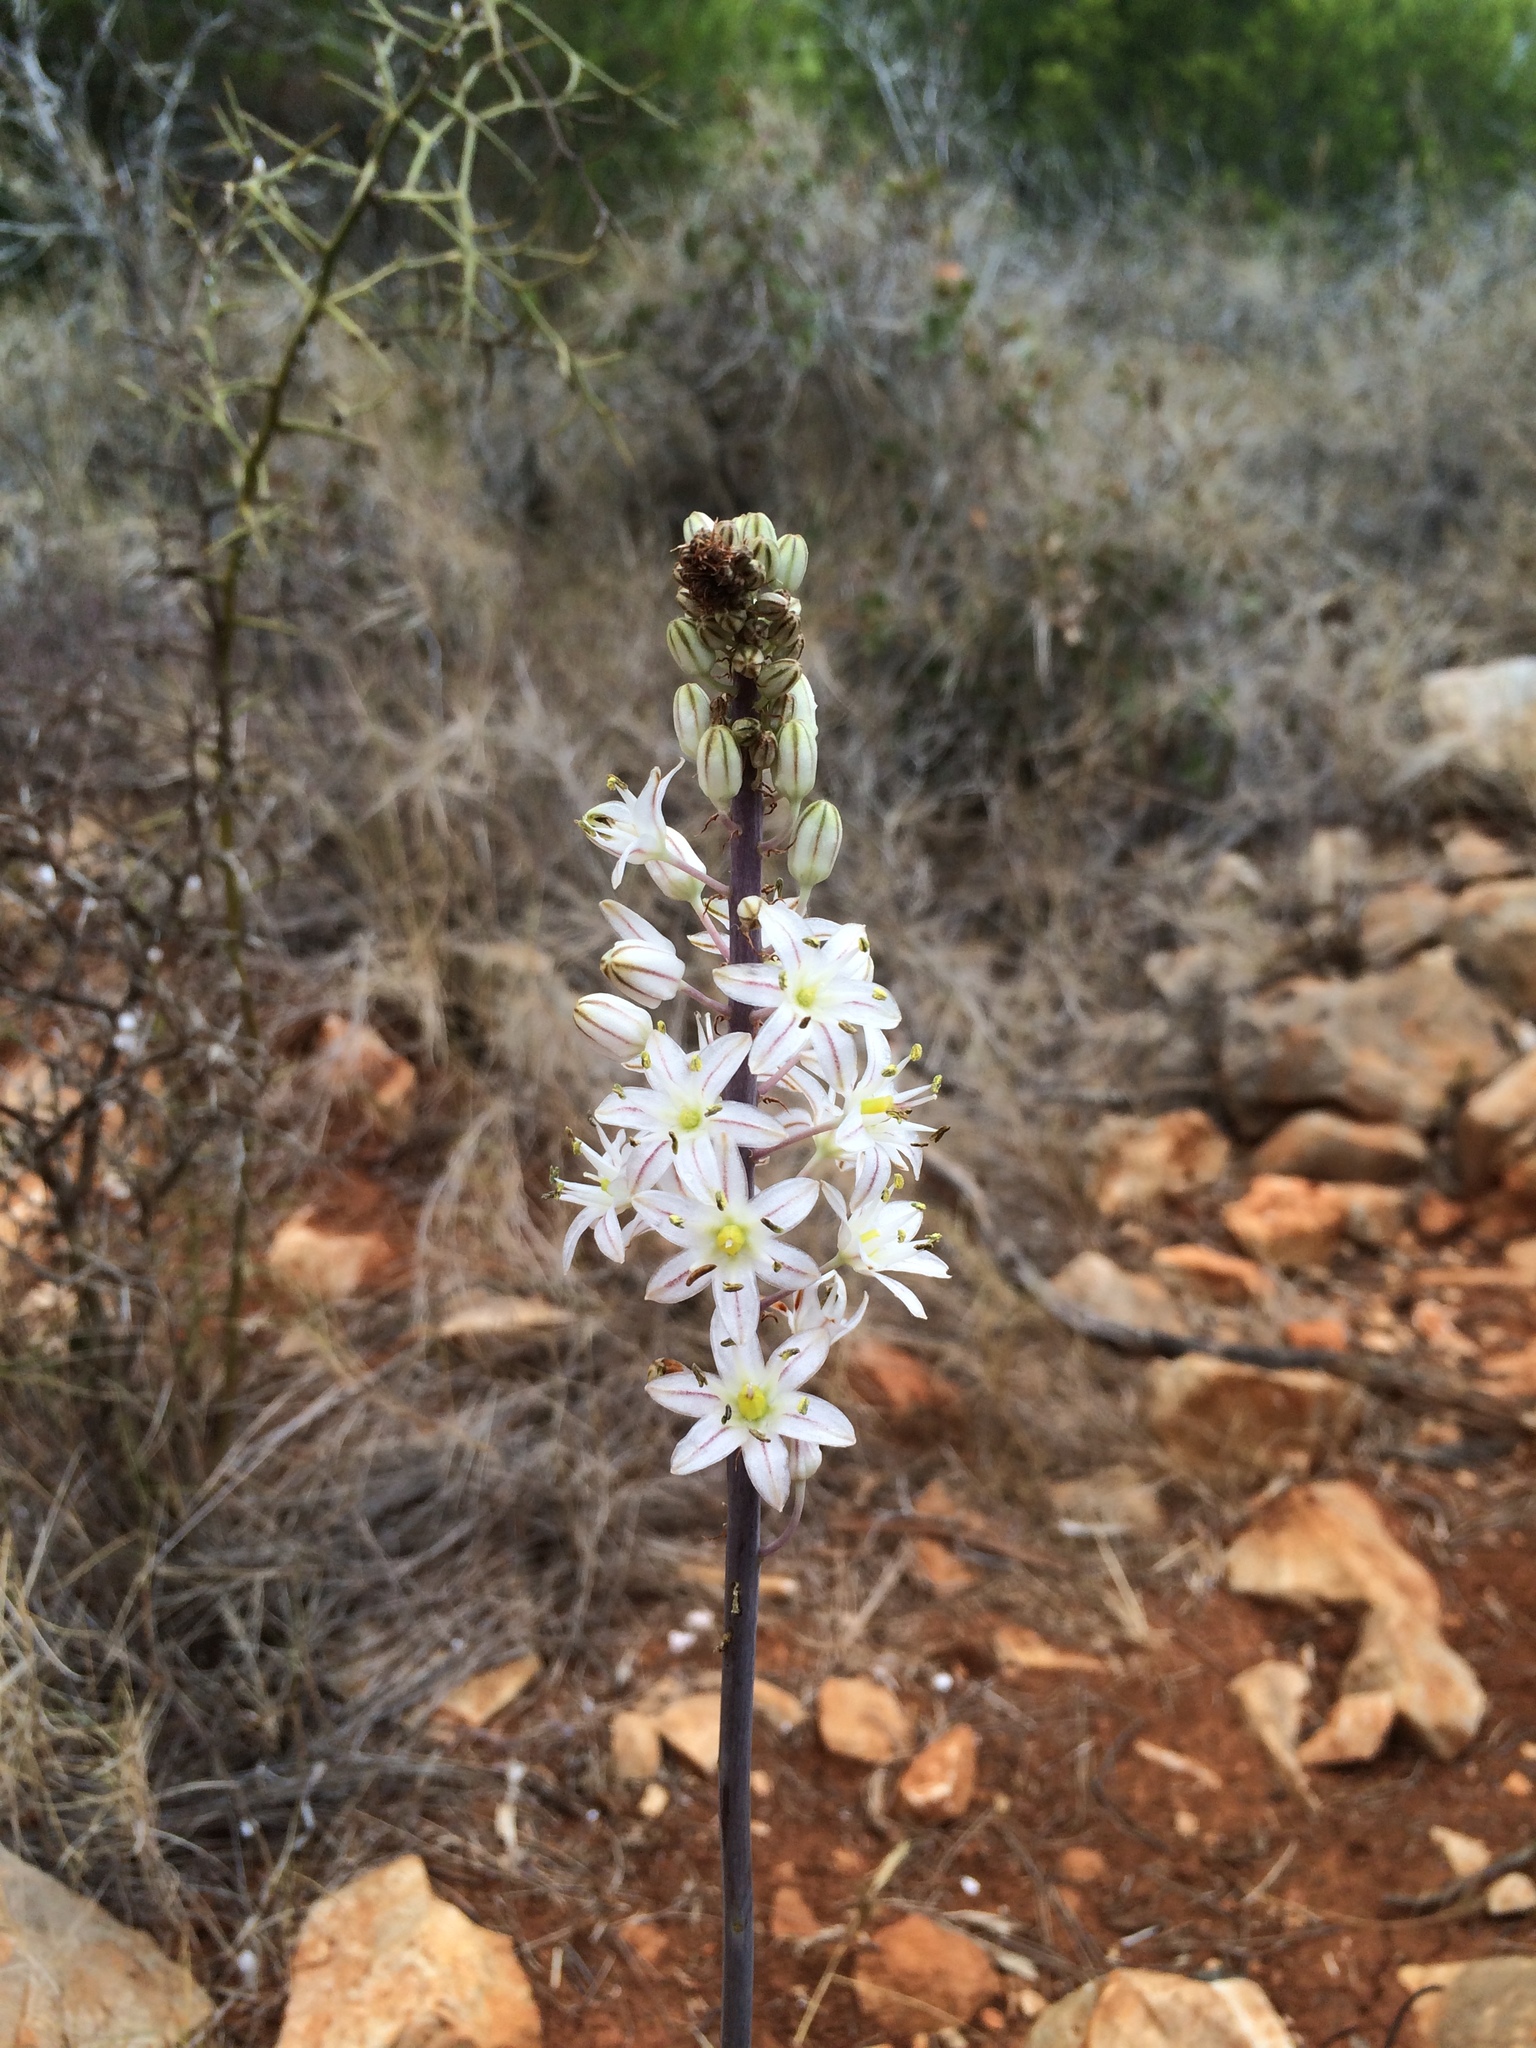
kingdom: Plantae
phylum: Tracheophyta
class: Liliopsida
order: Asparagales
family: Asparagaceae
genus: Drimia
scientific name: Drimia maritima
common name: Maritime squill
